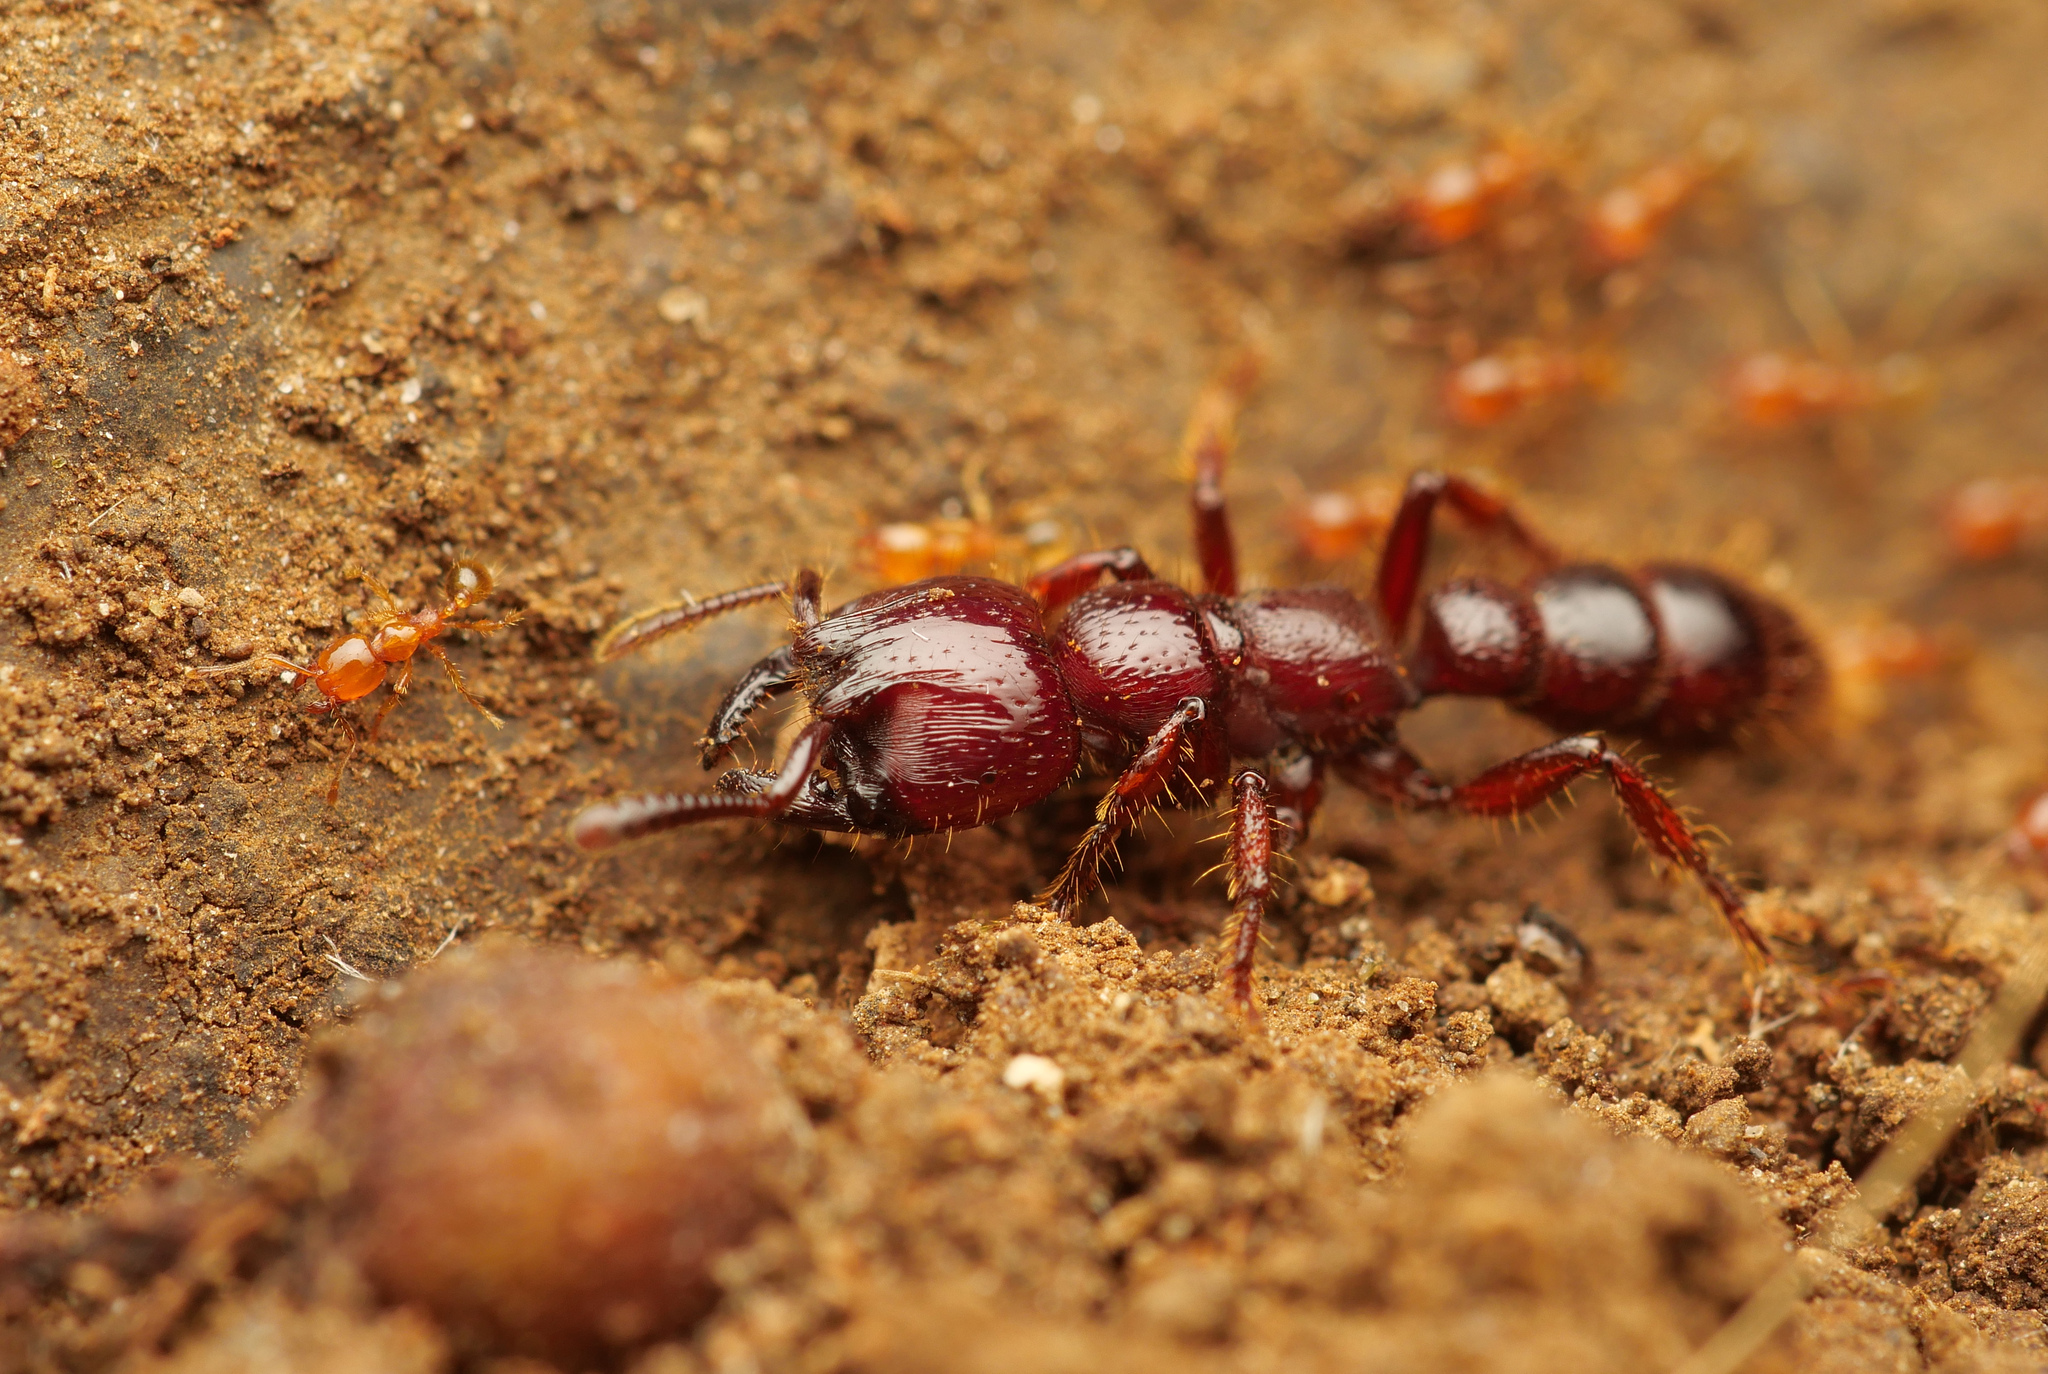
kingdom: Animalia
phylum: Arthropoda
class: Insecta
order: Hymenoptera
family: Formicidae
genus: Myopopone
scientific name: Myopopone castanea
